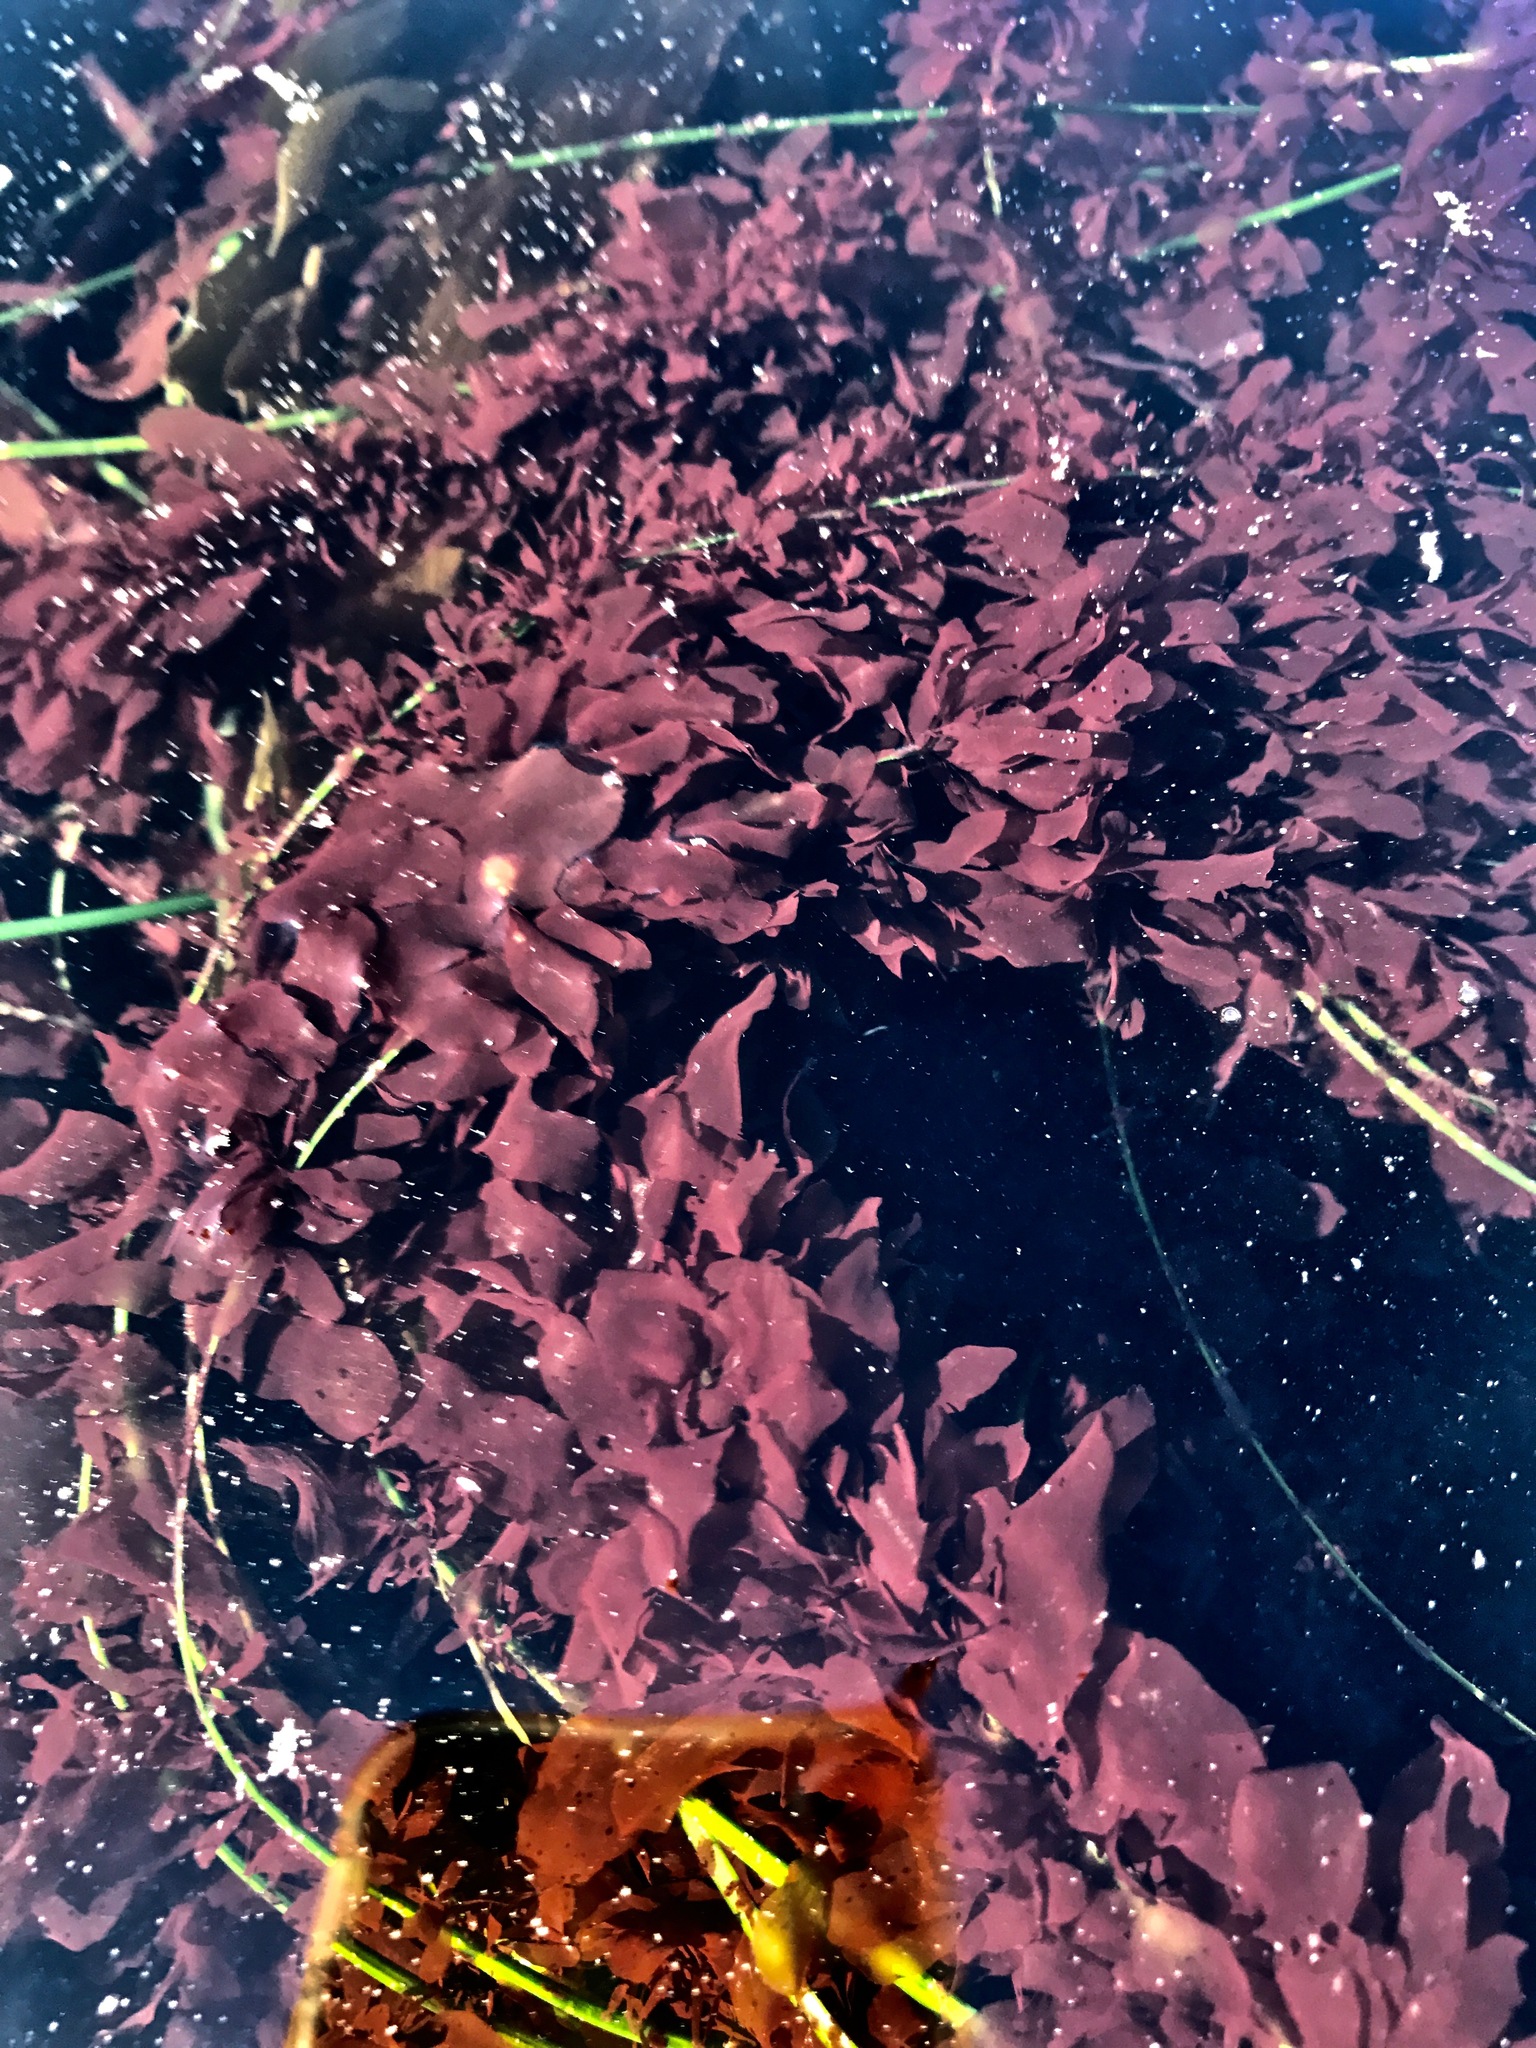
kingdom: Plantae
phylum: Rhodophyta
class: Compsopogonophyceae
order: Erythropeltidales
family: Erythrotrichiaceae
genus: Smithora
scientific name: Smithora naiadum
